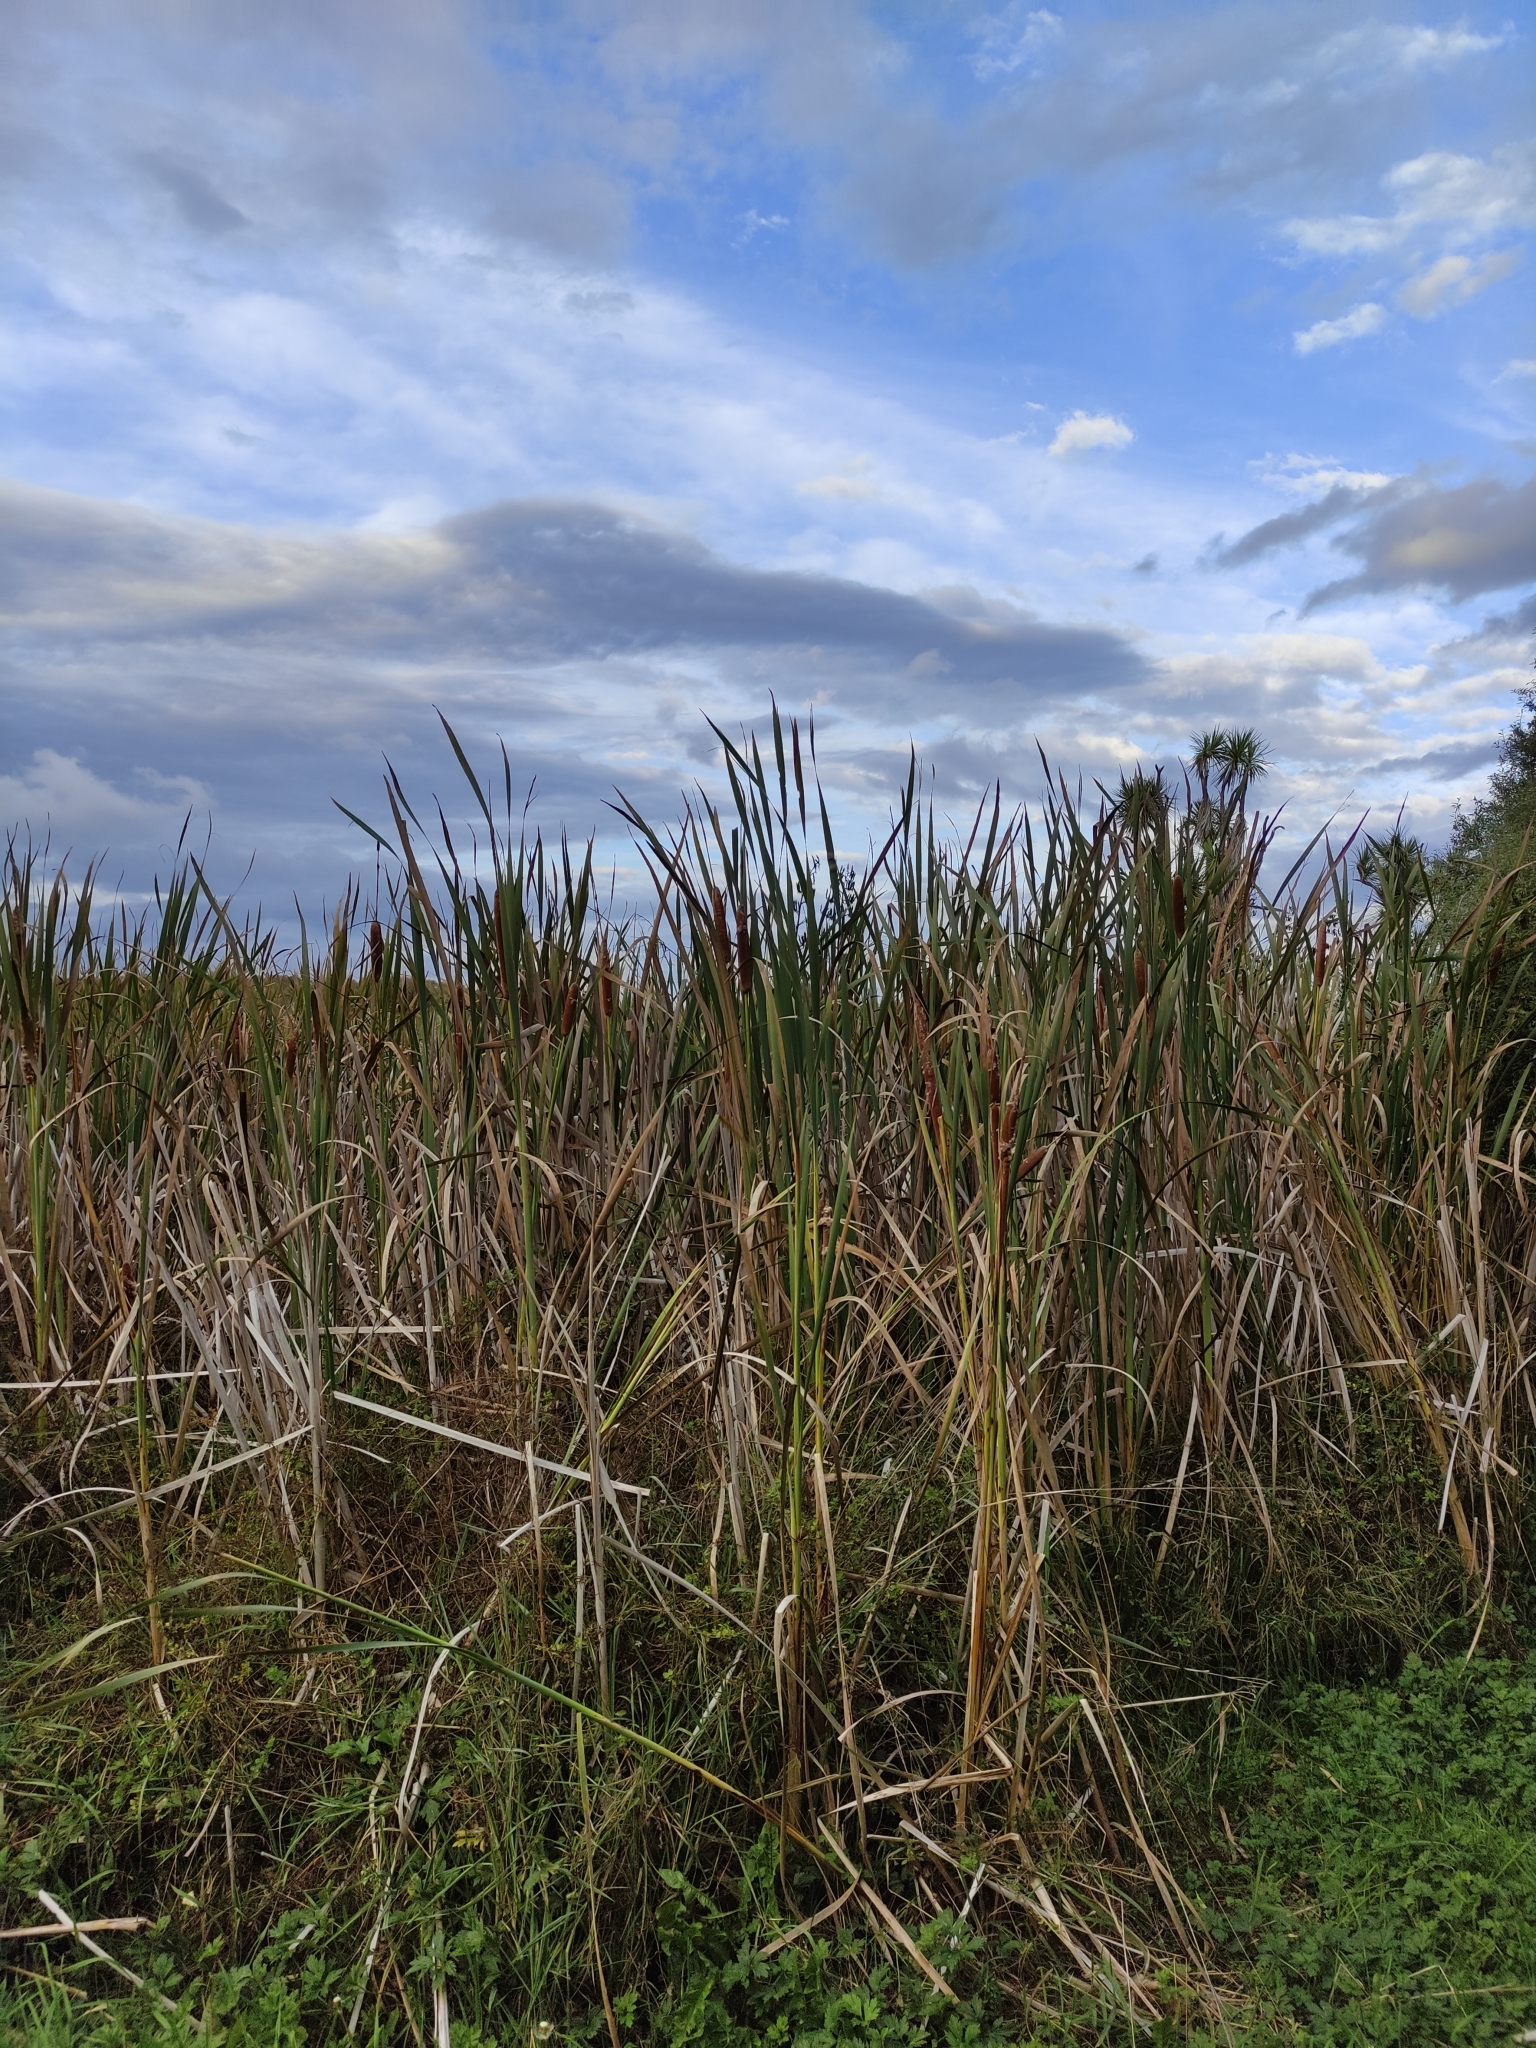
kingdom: Plantae
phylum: Tracheophyta
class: Liliopsida
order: Poales
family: Typhaceae
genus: Typha
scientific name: Typha orientalis
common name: Bullrush
